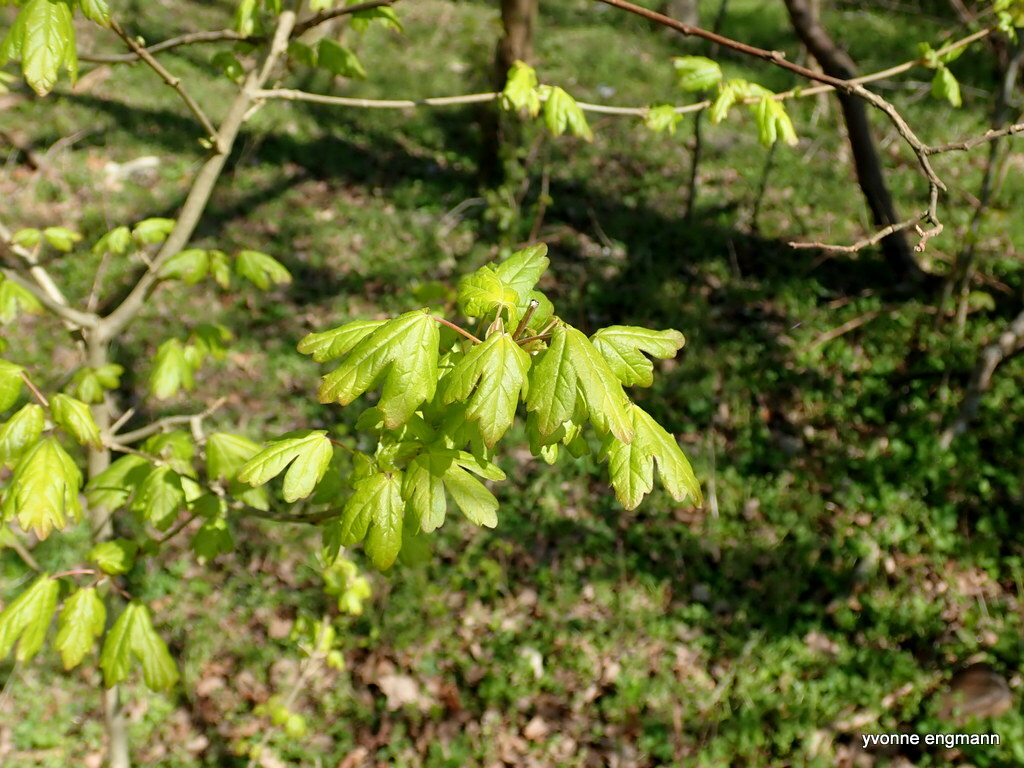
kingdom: Plantae
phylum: Tracheophyta
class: Magnoliopsida
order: Sapindales
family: Sapindaceae
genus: Acer
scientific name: Acer campestre
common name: Field maple
